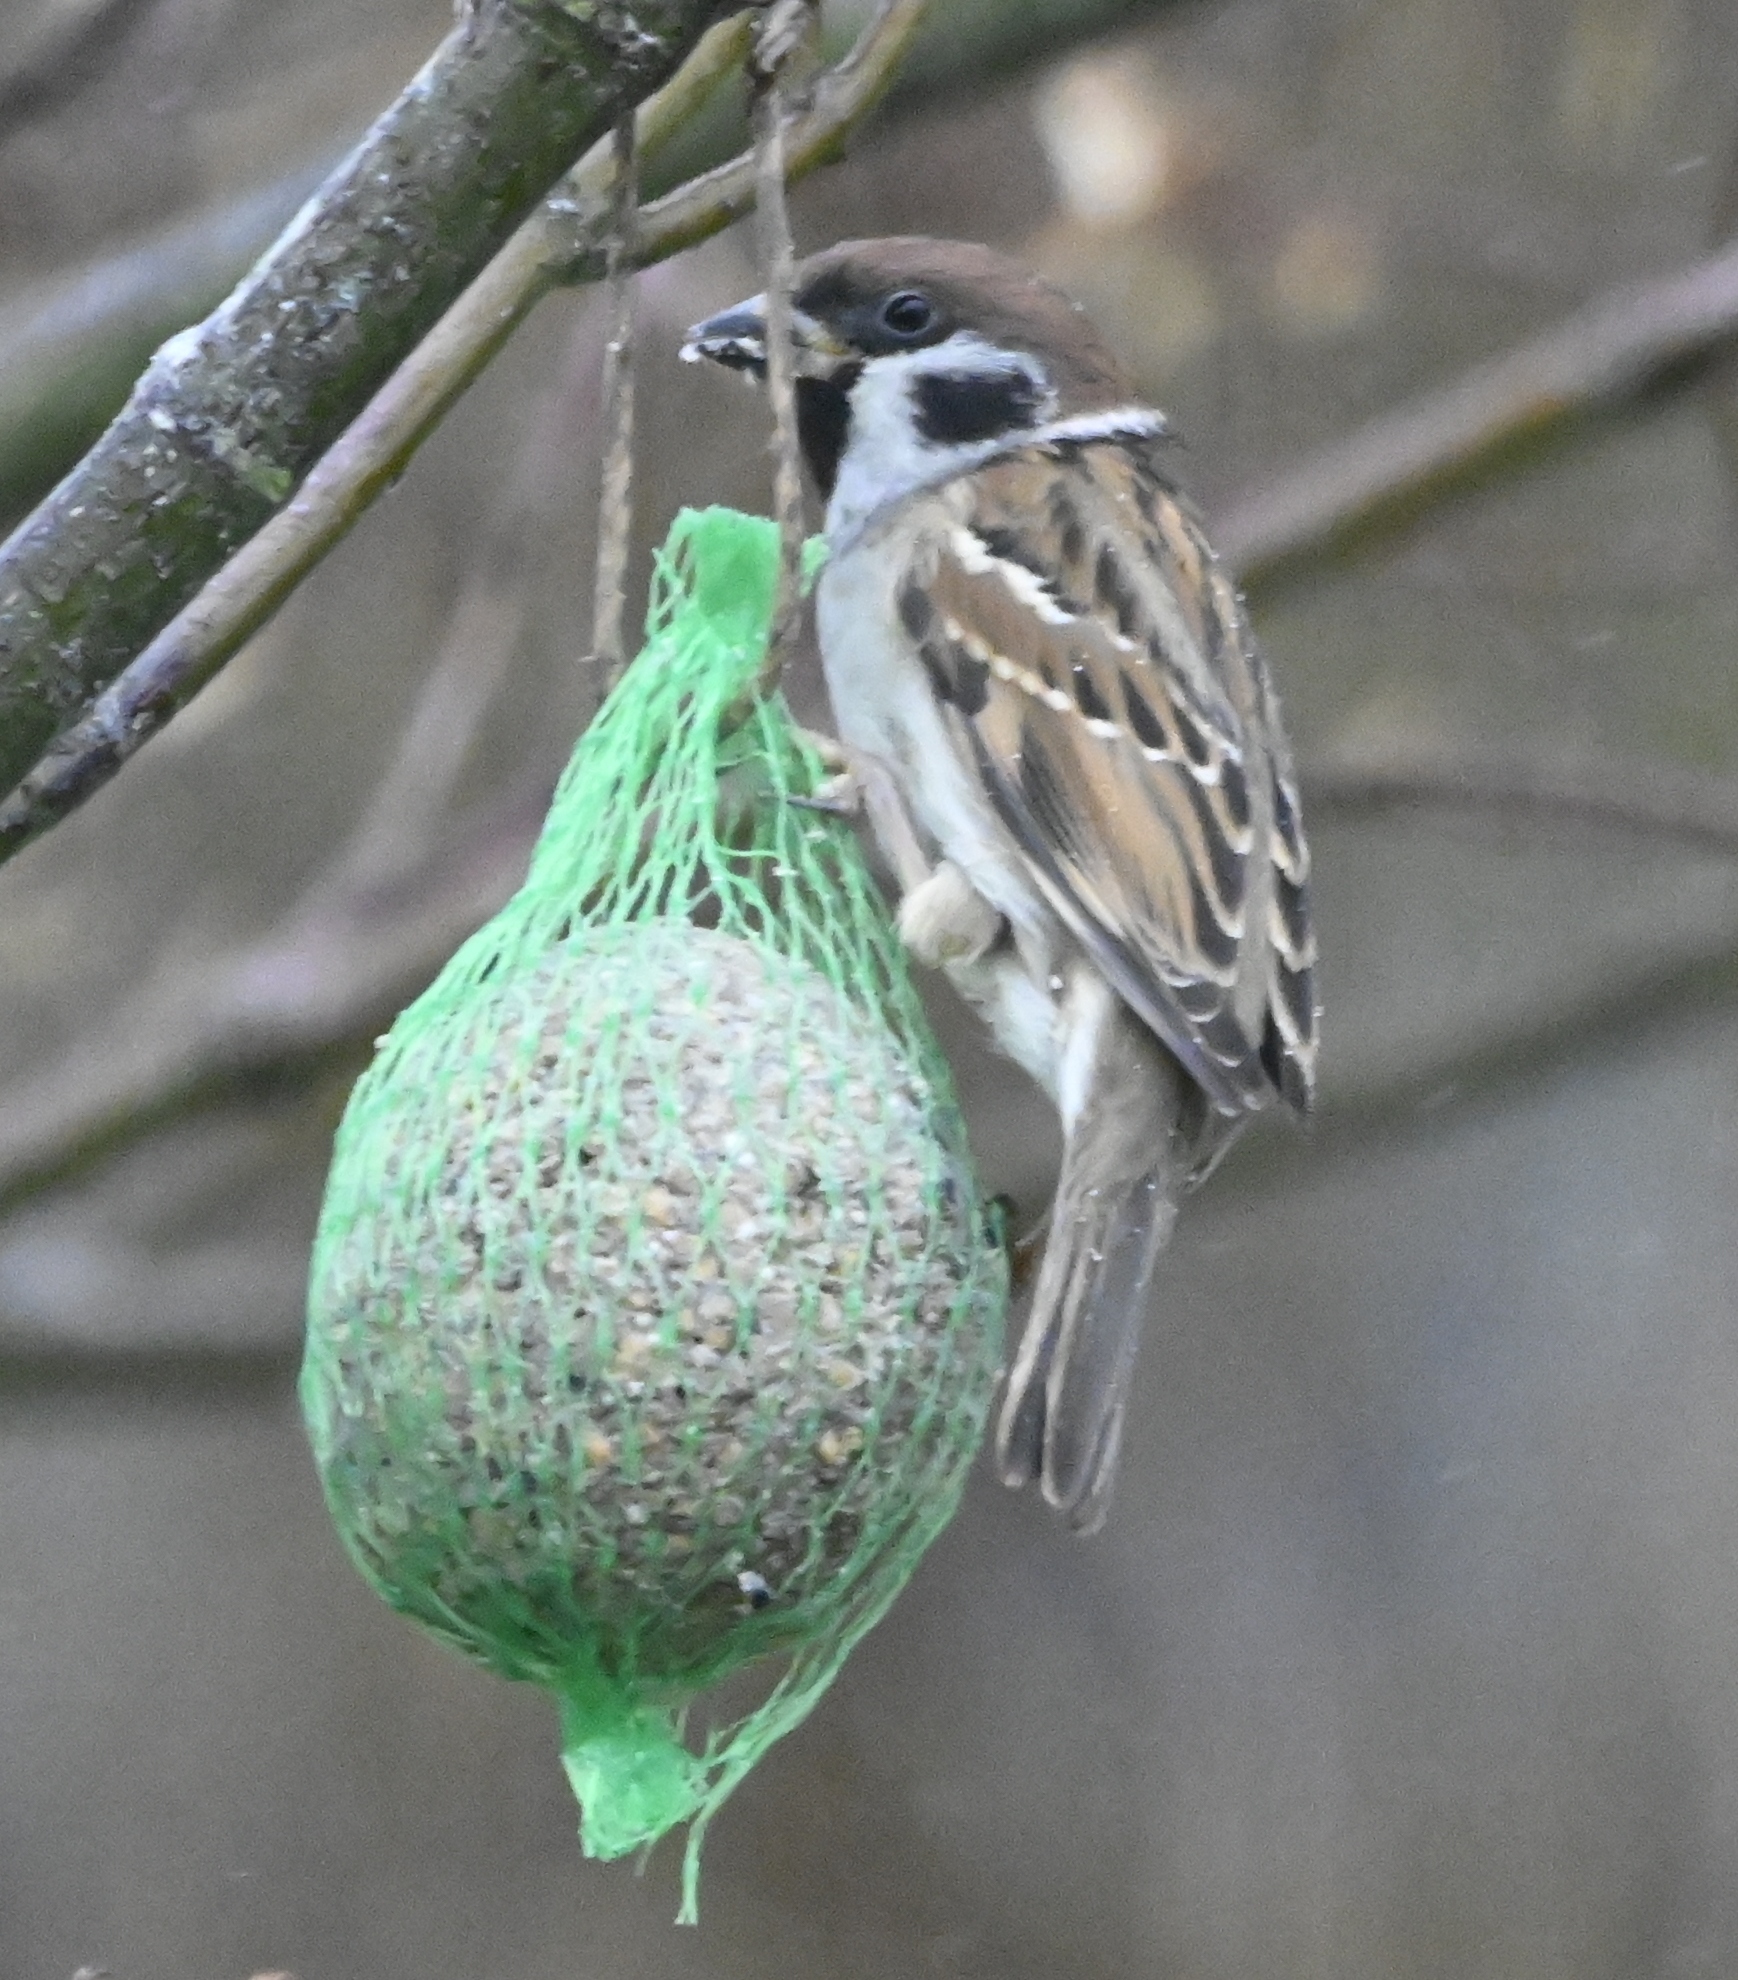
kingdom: Animalia
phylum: Chordata
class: Aves
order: Passeriformes
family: Passeridae
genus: Passer
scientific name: Passer montanus
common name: Eurasian tree sparrow
